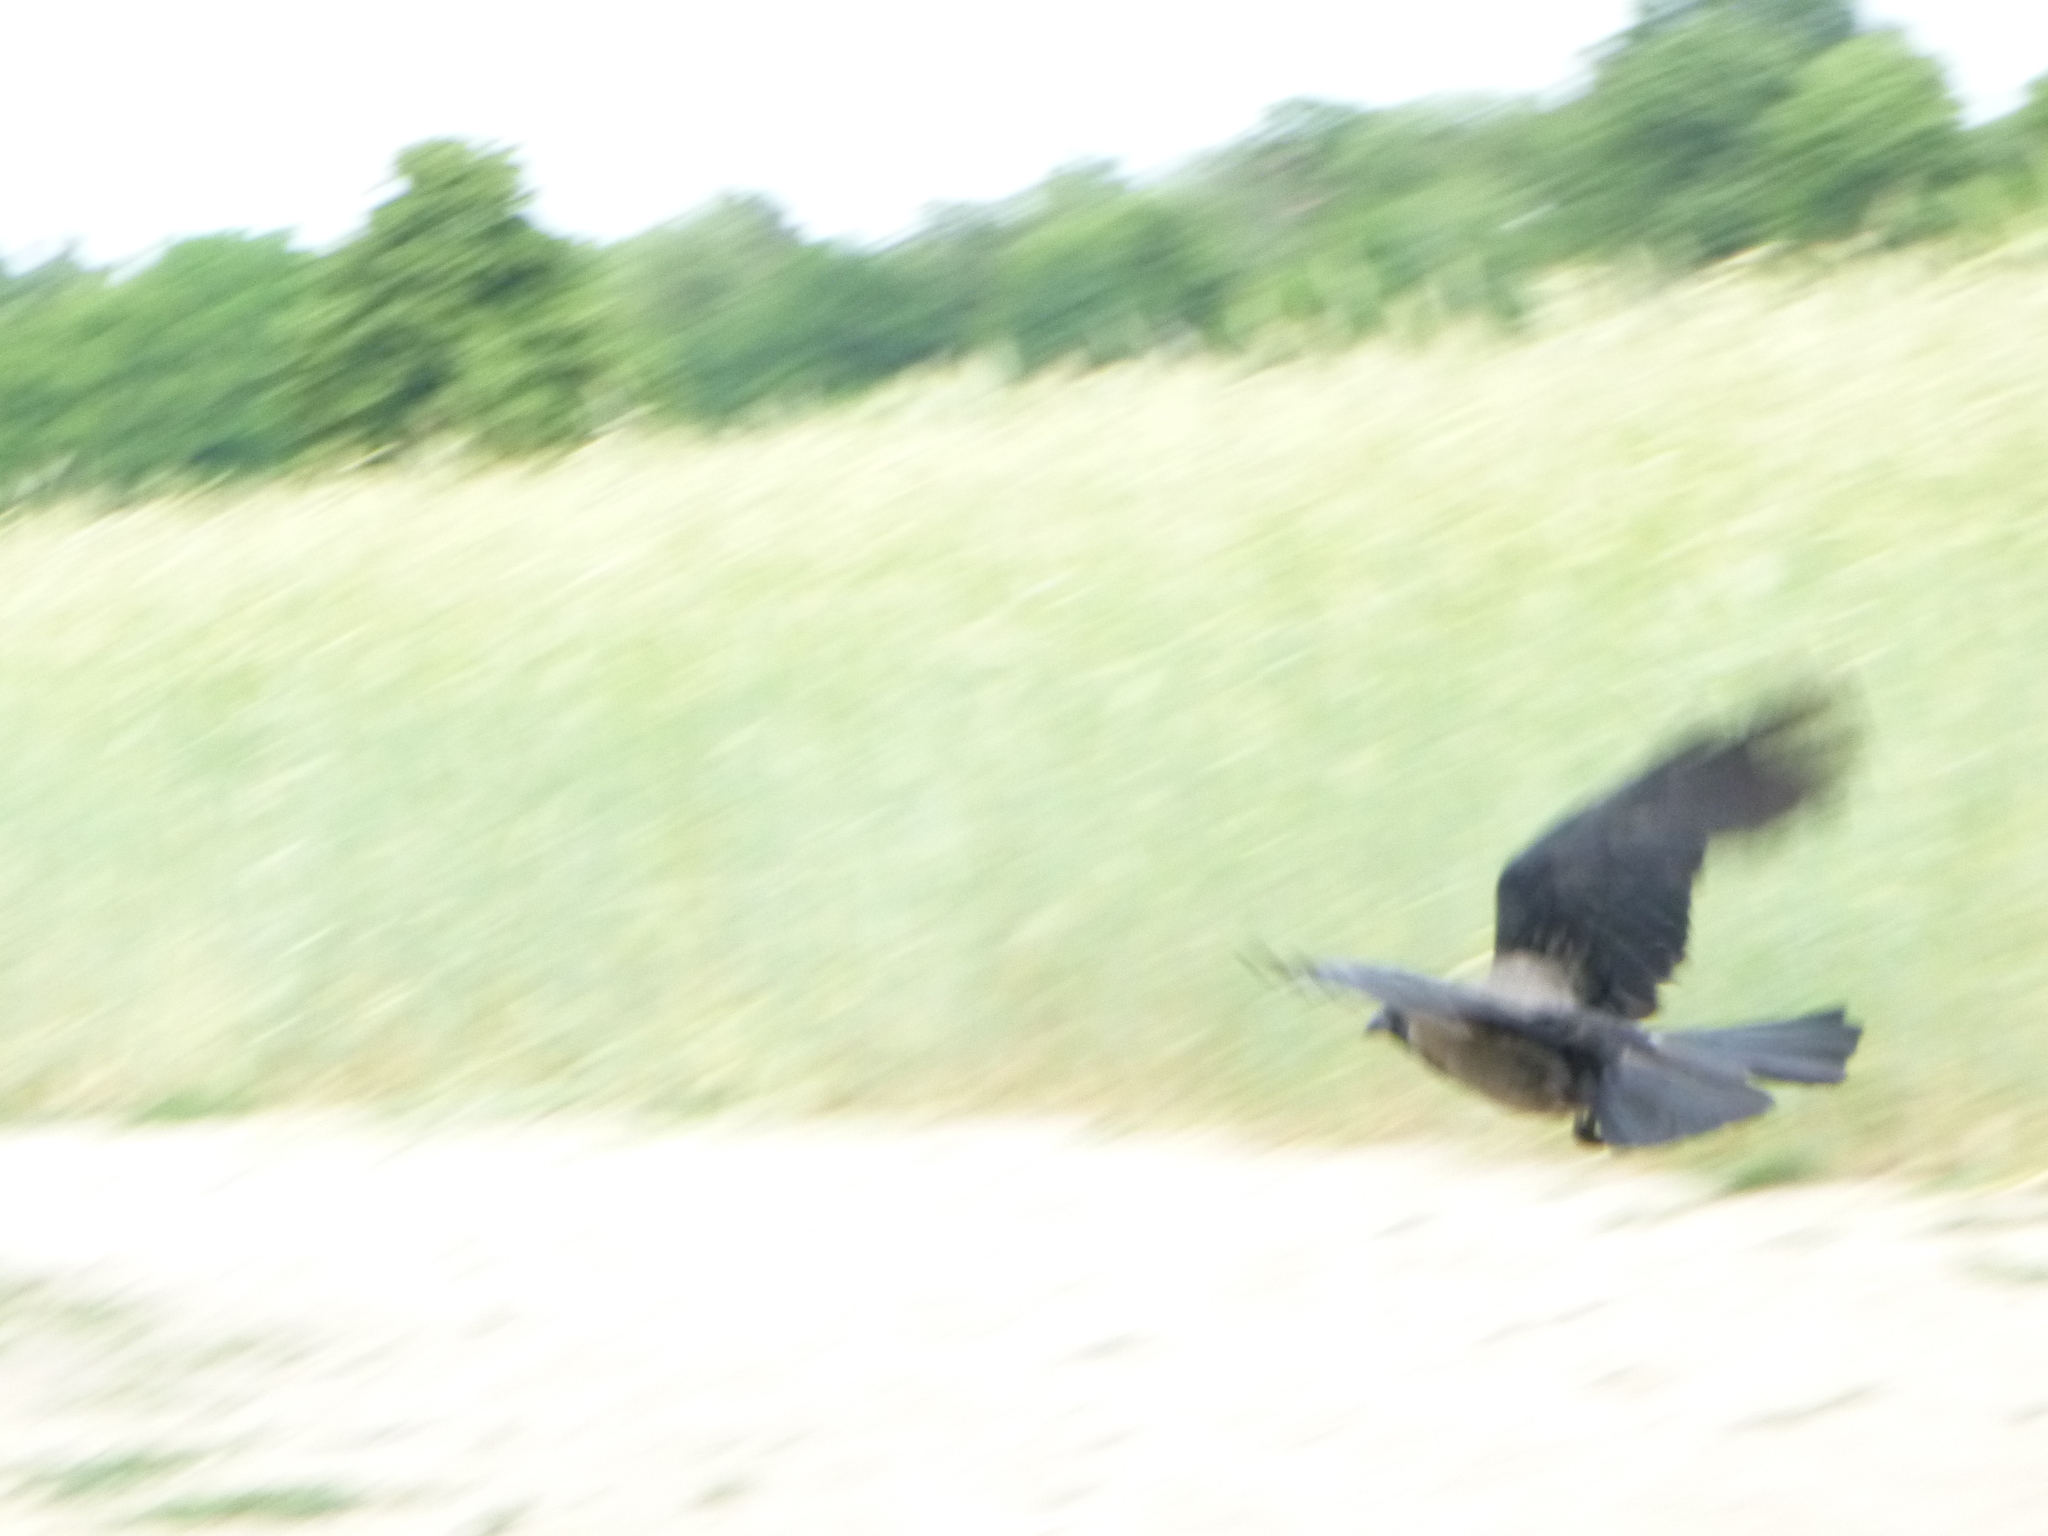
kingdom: Animalia
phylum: Chordata
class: Aves
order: Passeriformes
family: Corvidae
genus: Corvus
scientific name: Corvus cornix
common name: Hooded crow
